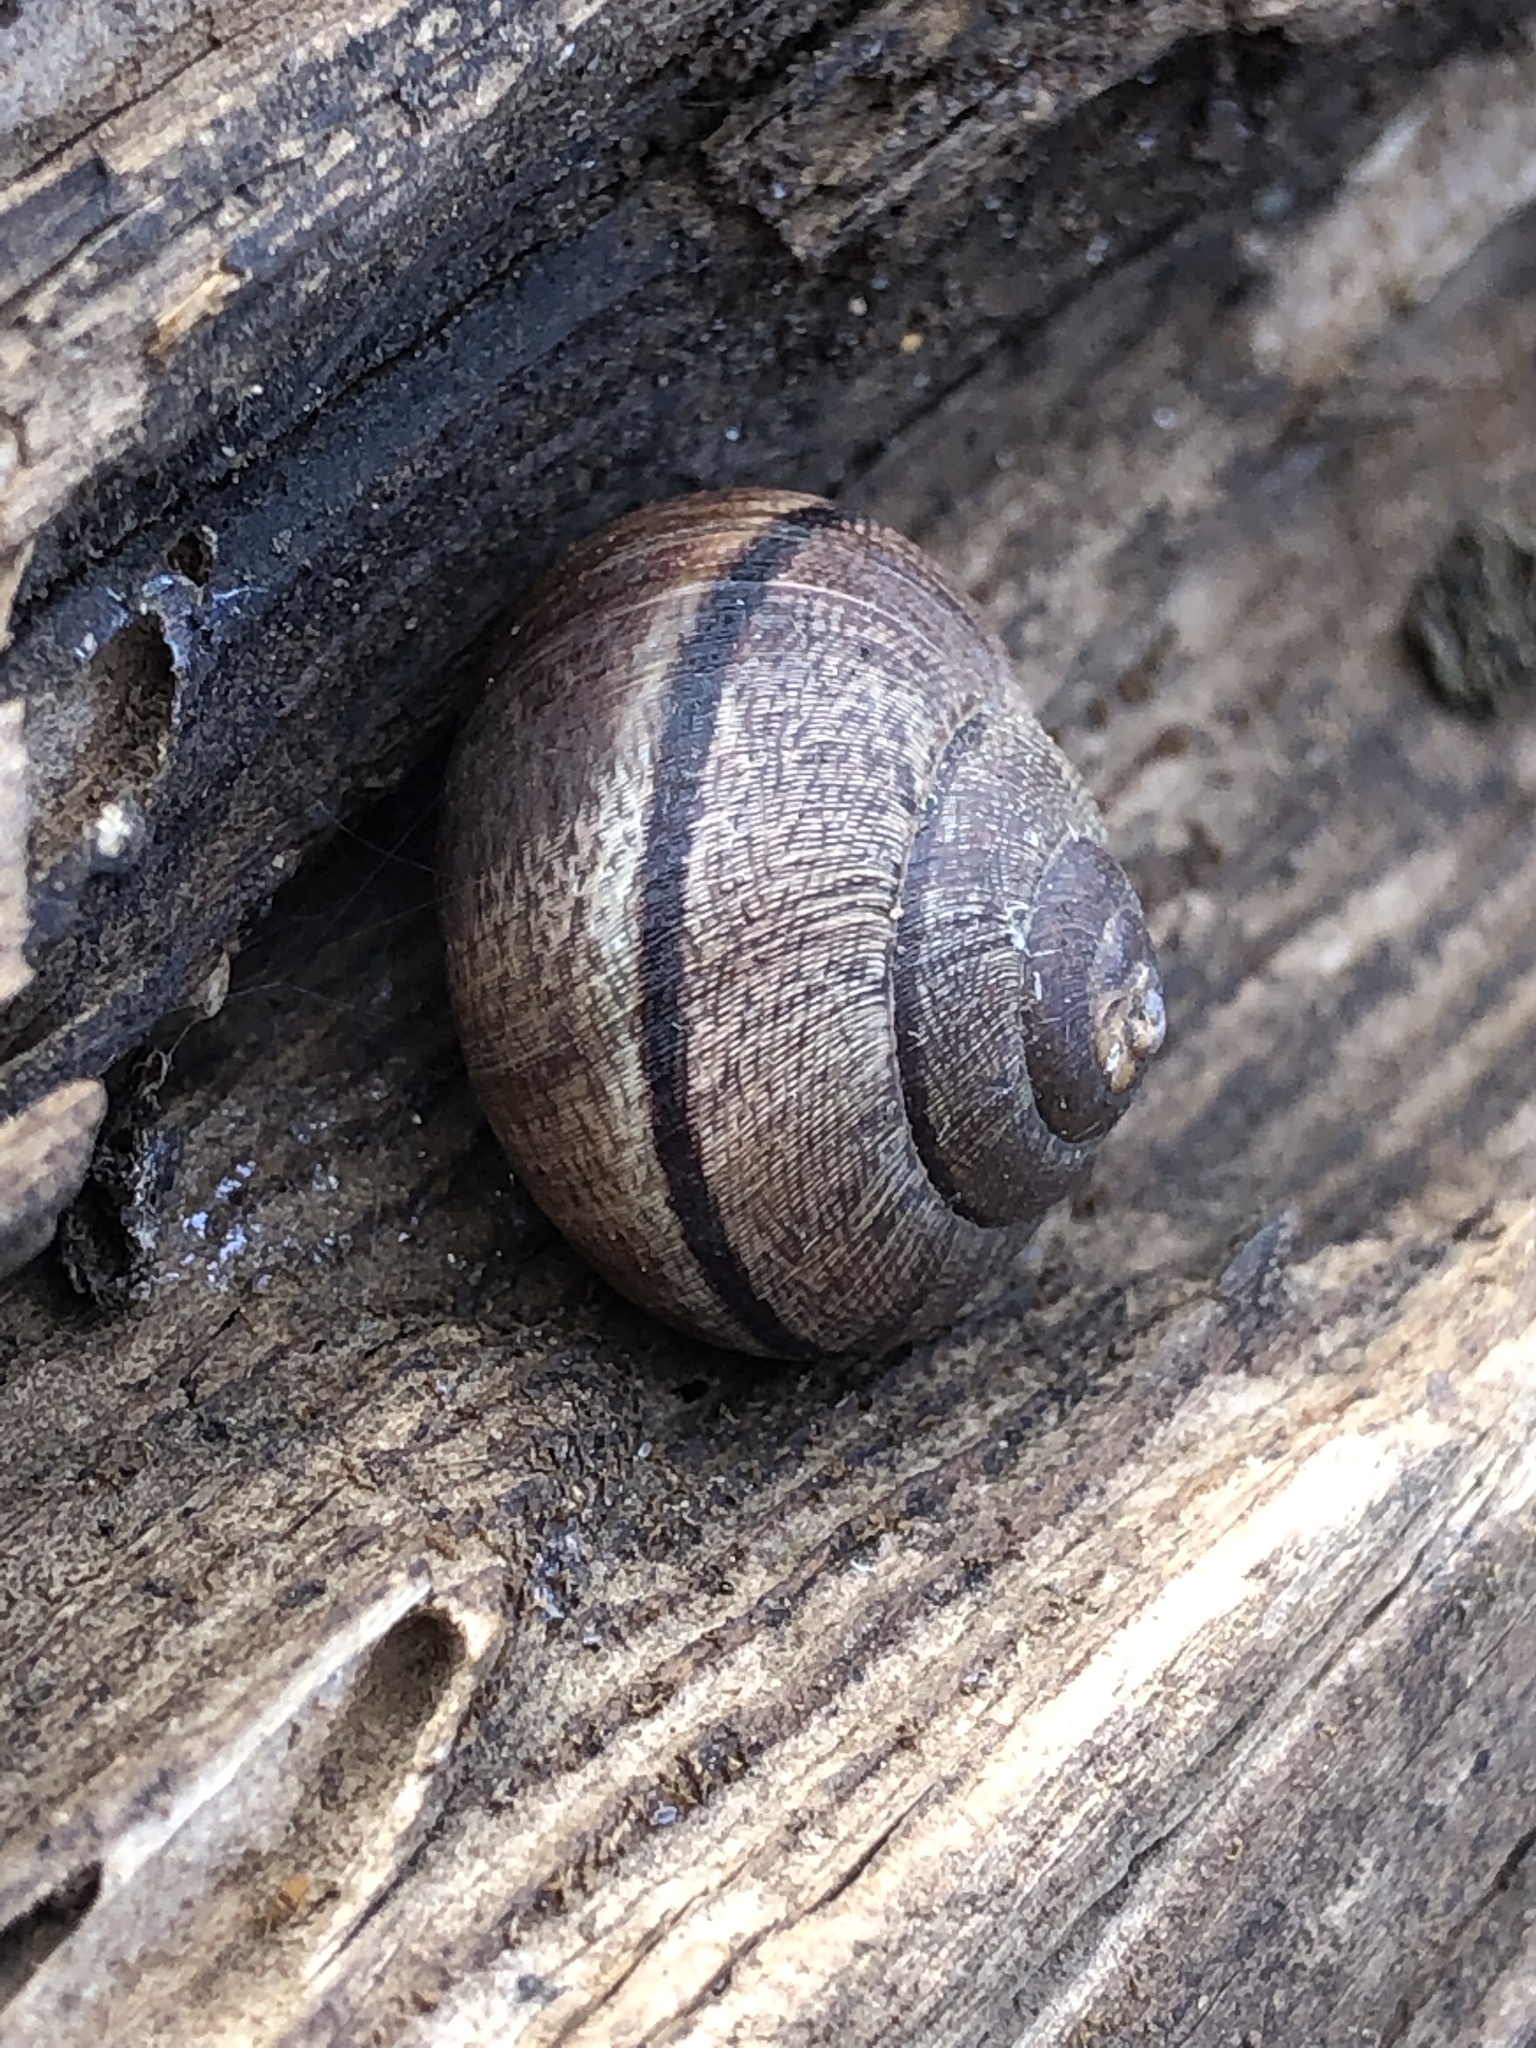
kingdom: Animalia
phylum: Mollusca
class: Gastropoda
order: Stylommatophora
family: Xanthonychidae
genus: Helminthoglypta
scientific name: Helminthoglypta nickliniana
